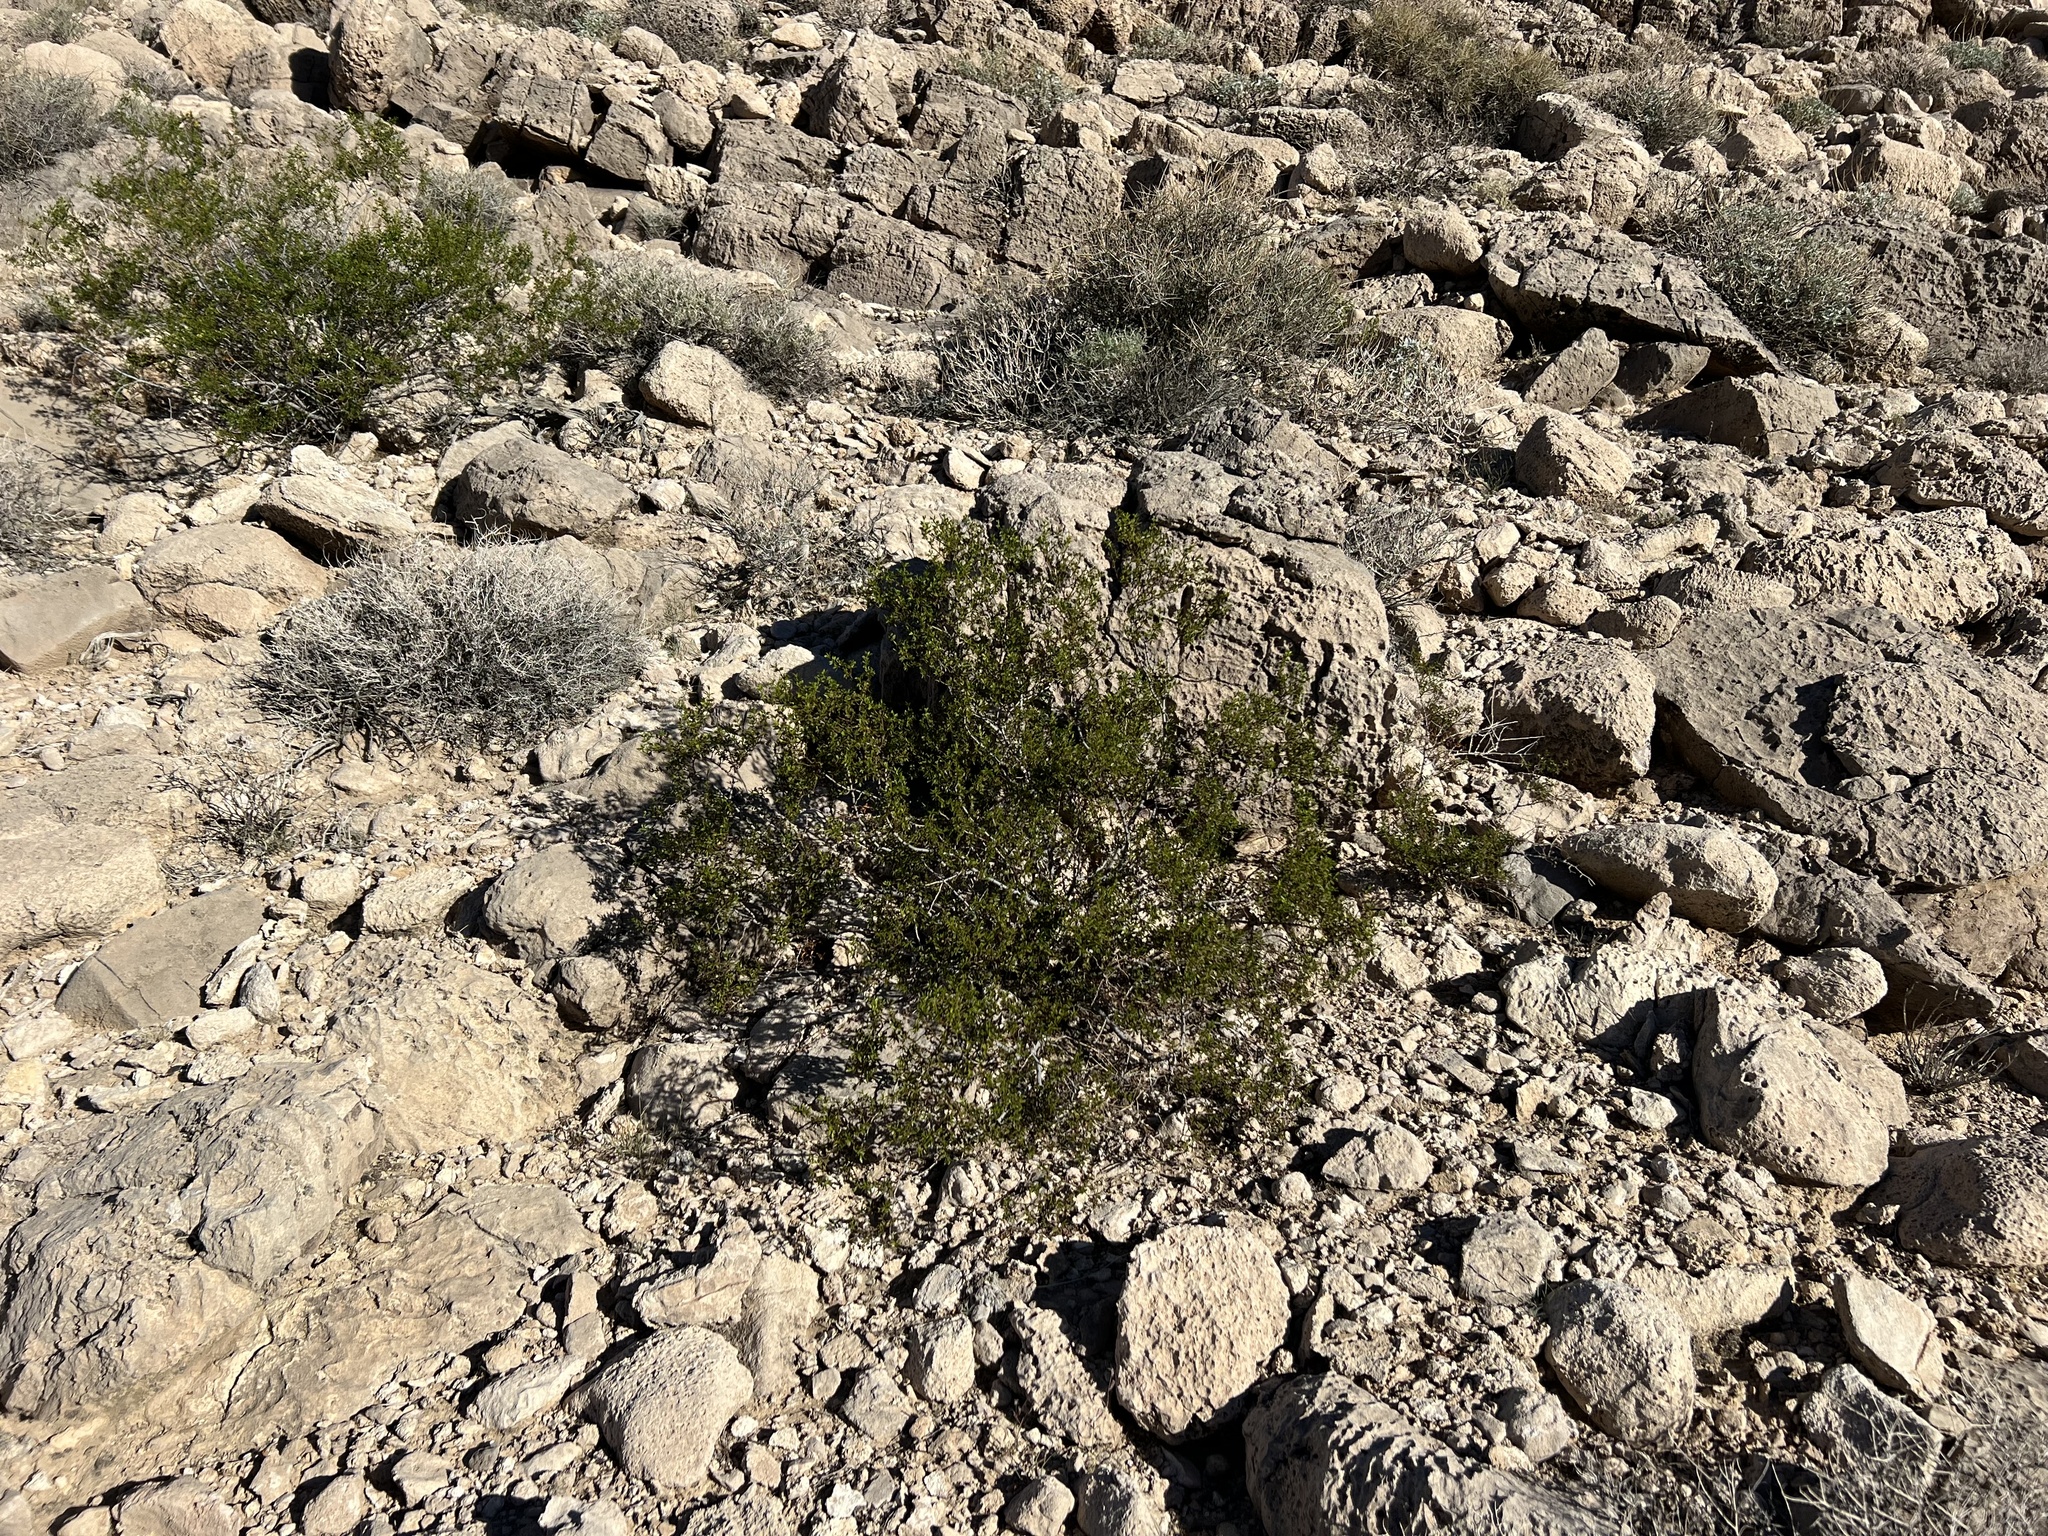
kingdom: Plantae
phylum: Tracheophyta
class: Magnoliopsida
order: Zygophyllales
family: Zygophyllaceae
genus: Larrea
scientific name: Larrea tridentata
